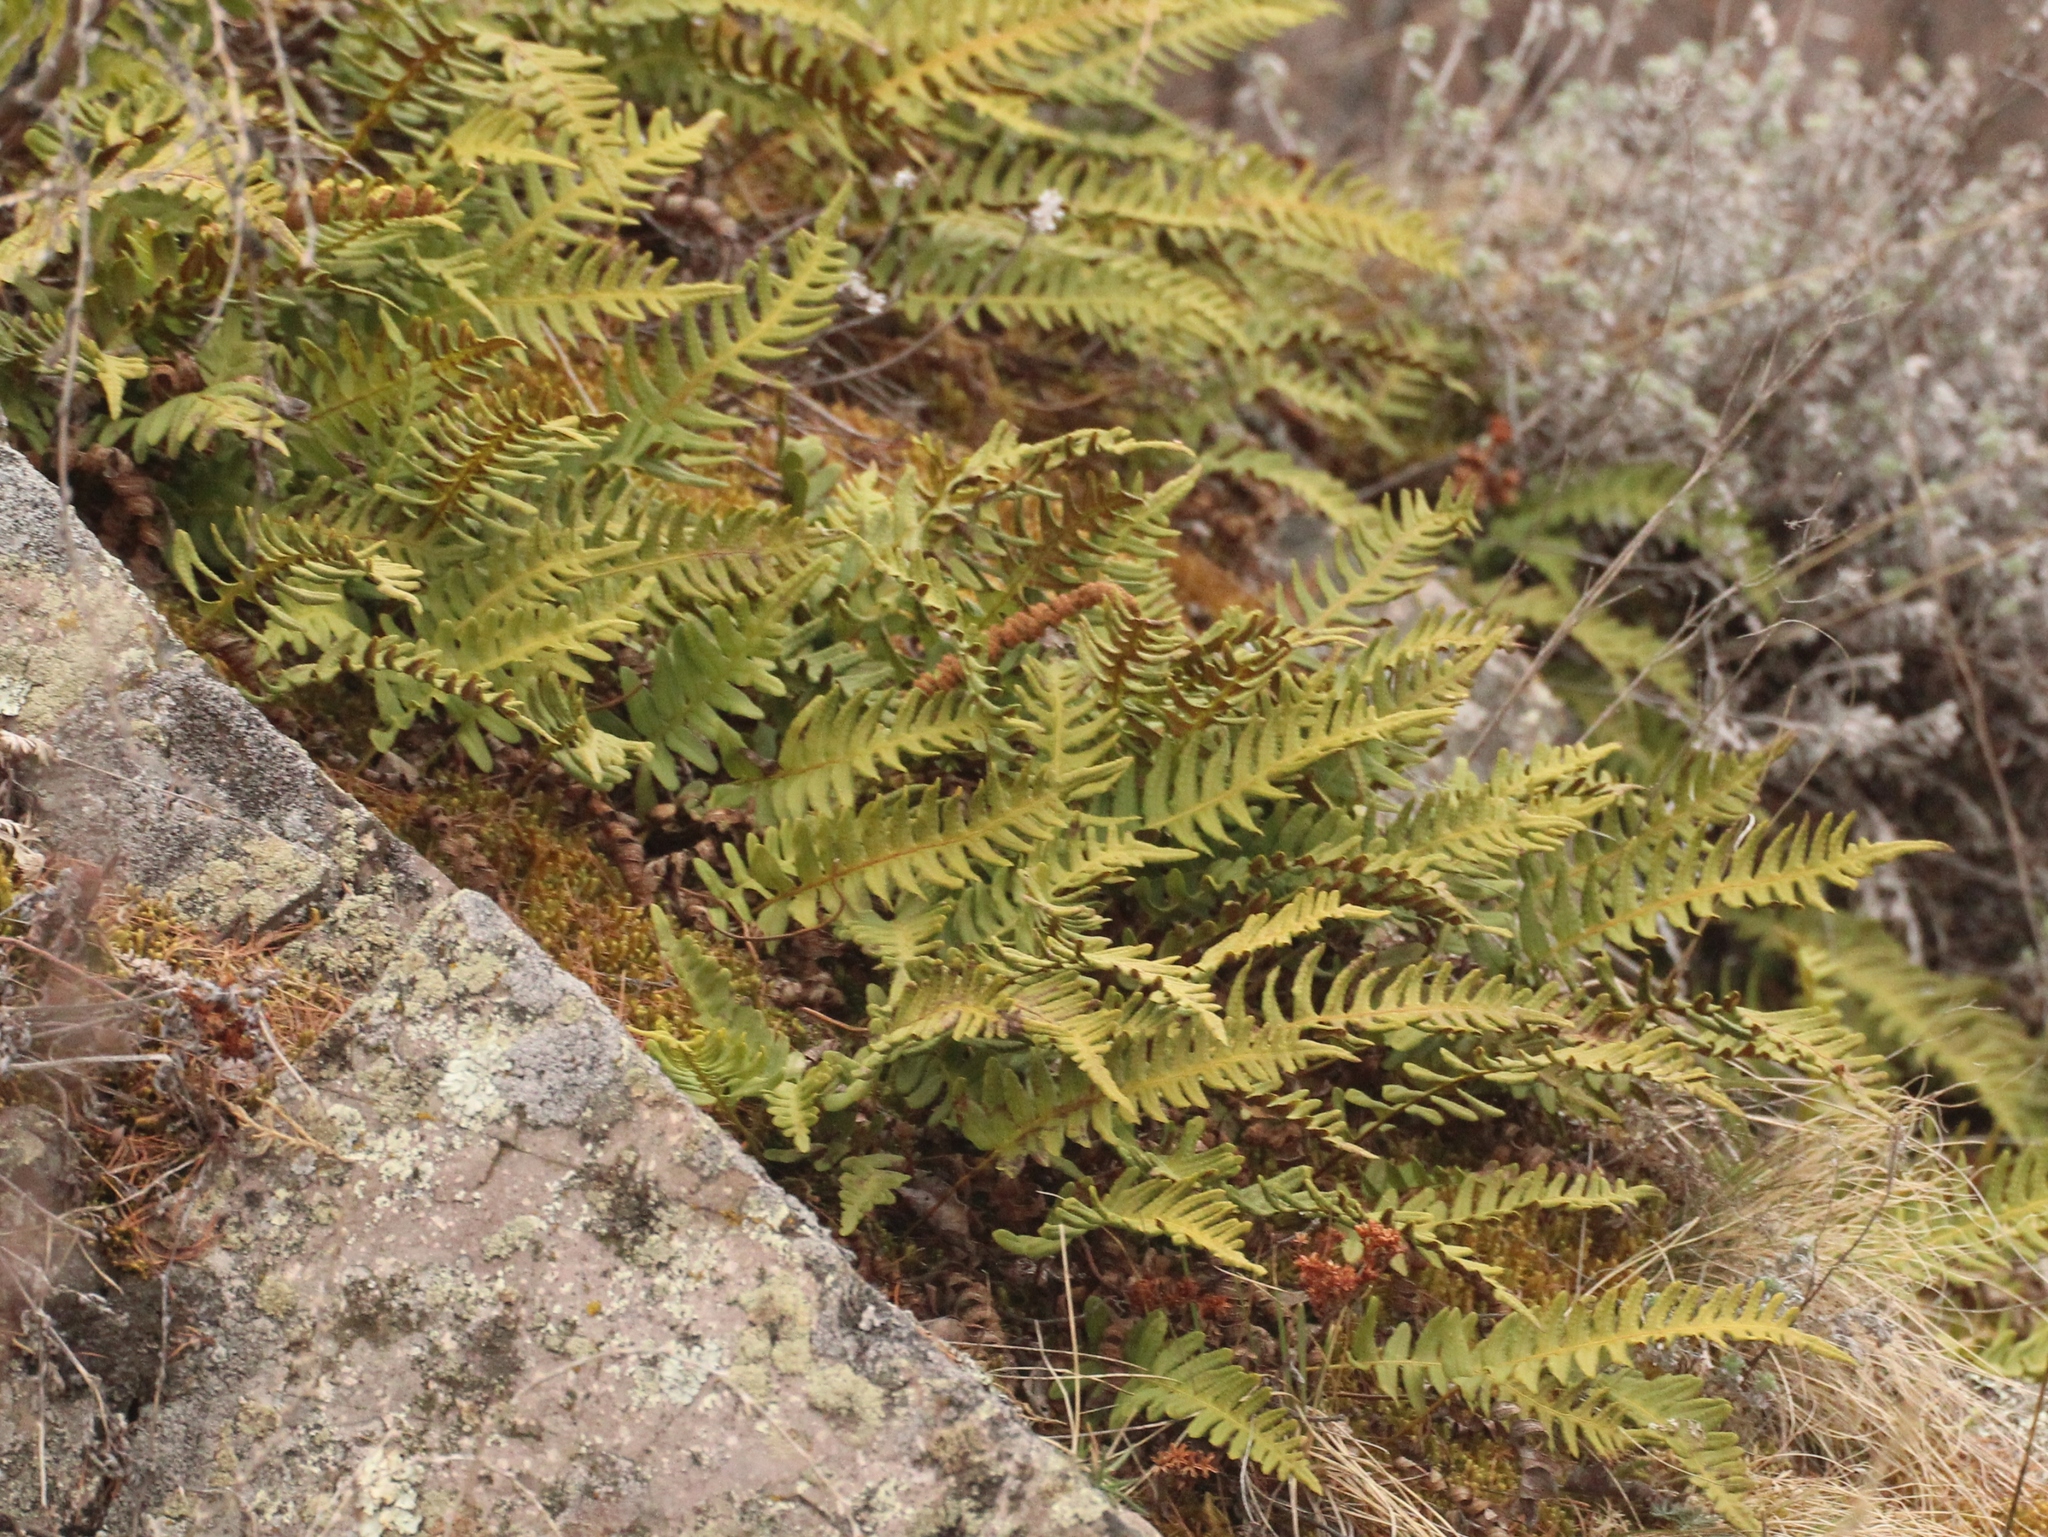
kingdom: Plantae
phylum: Tracheophyta
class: Polypodiopsida
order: Polypodiales
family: Polypodiaceae
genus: Polypodium
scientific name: Polypodium sibiricum
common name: Siberian polypody
